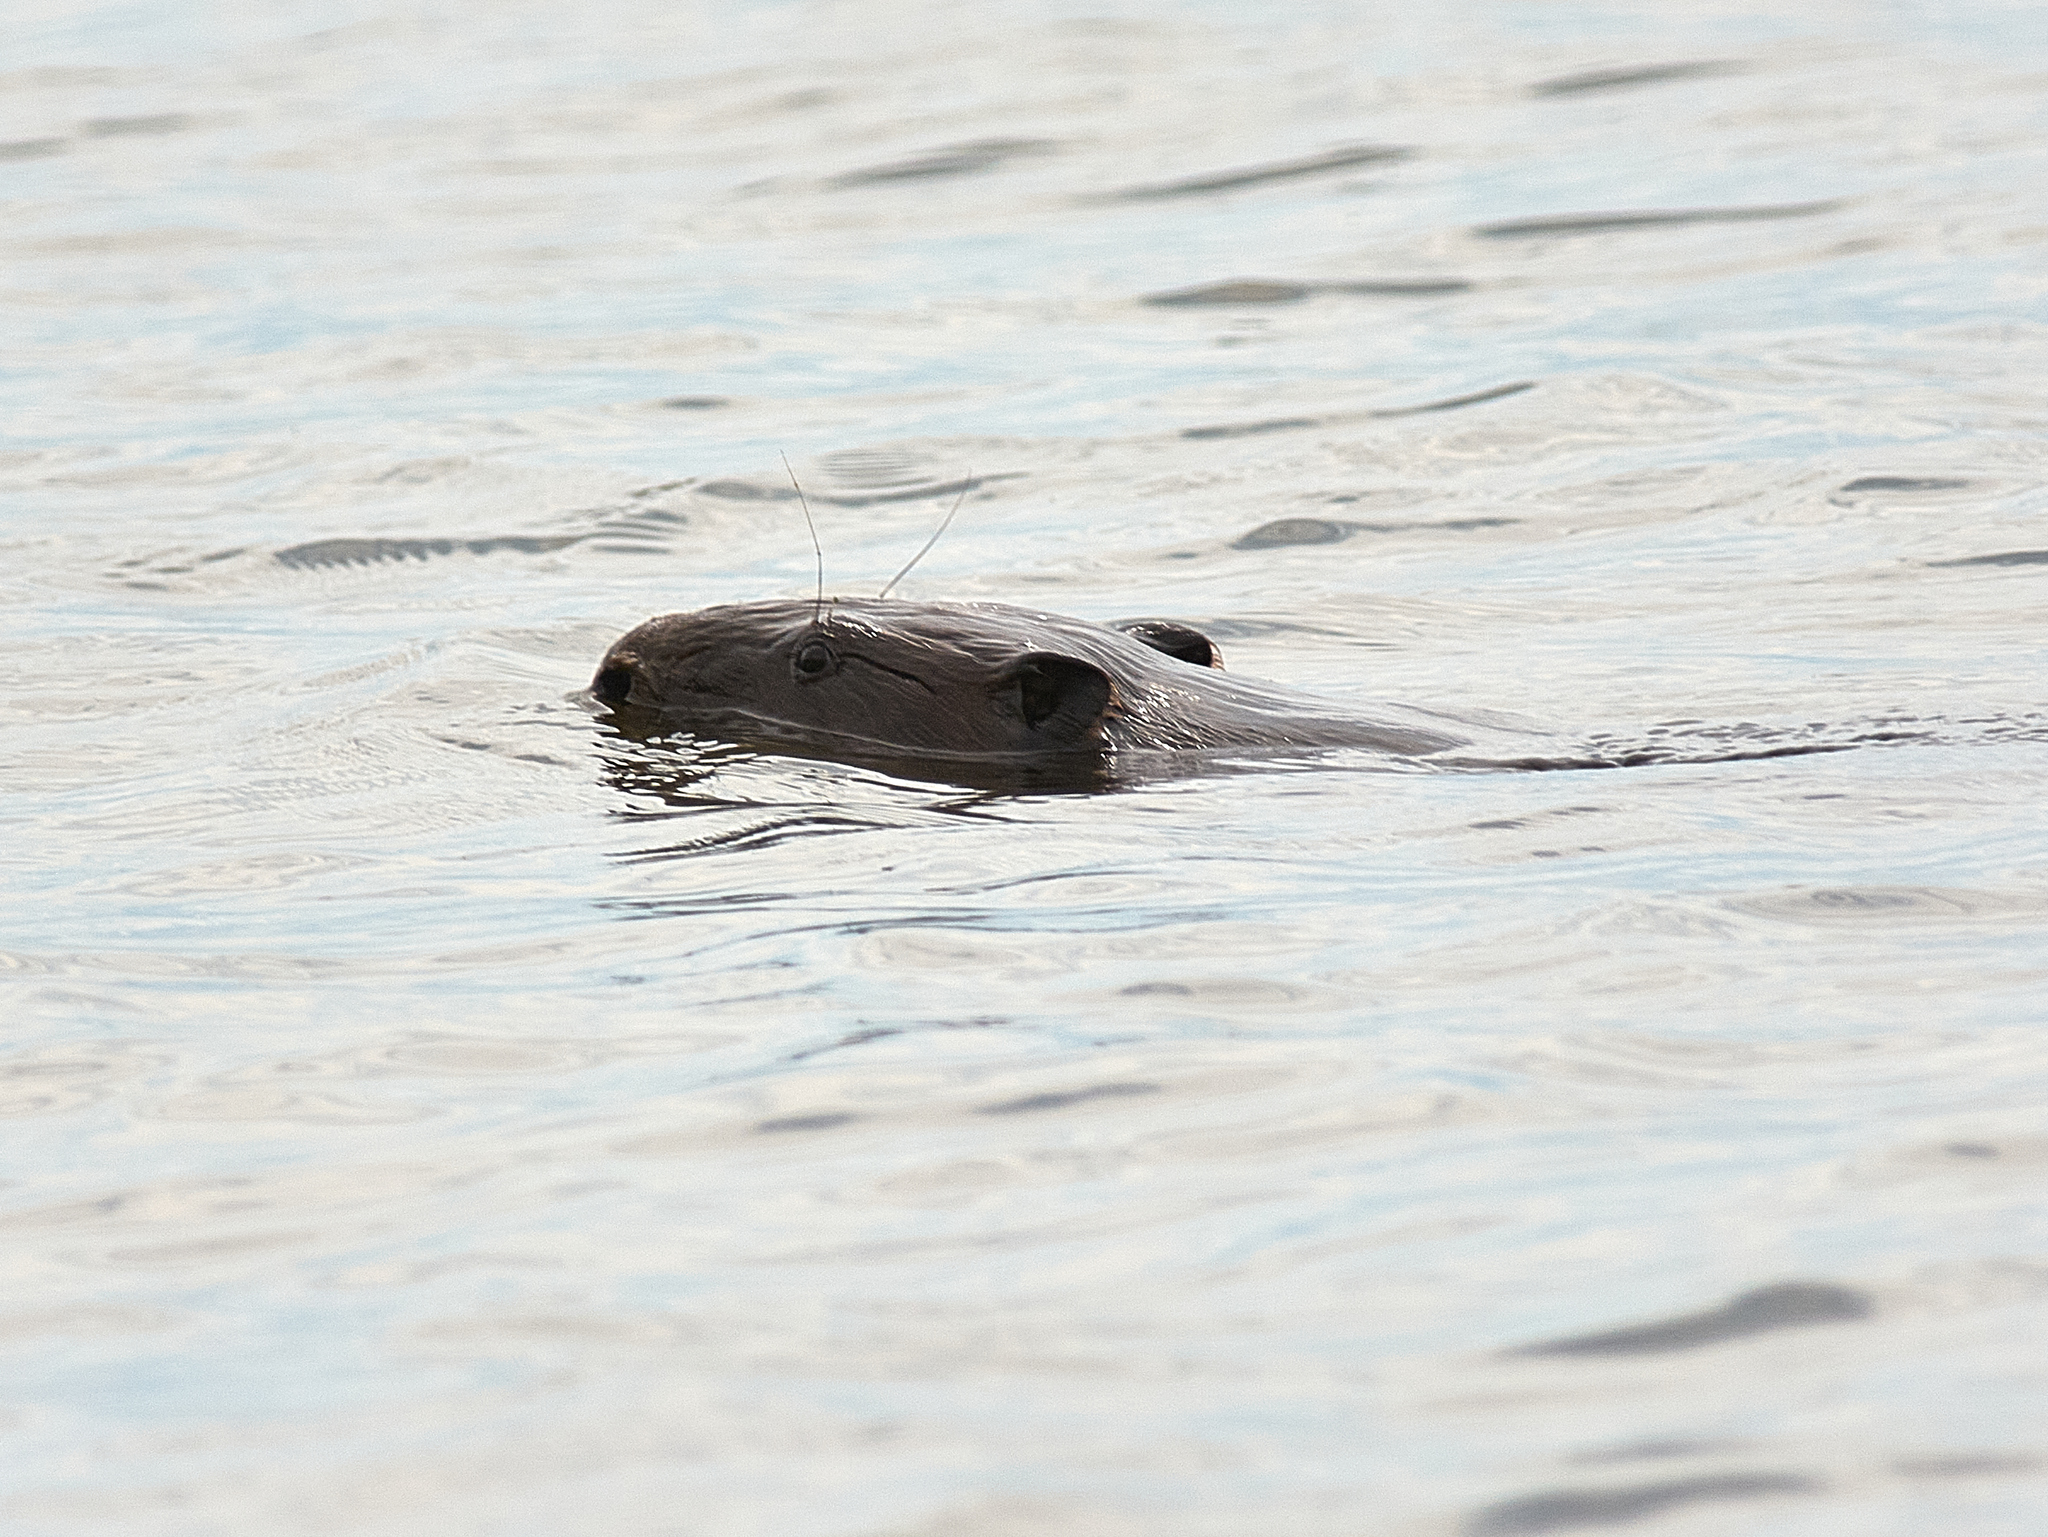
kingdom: Animalia
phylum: Chordata
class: Mammalia
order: Rodentia
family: Castoridae
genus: Castor
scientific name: Castor fiber
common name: Eurasian beaver
